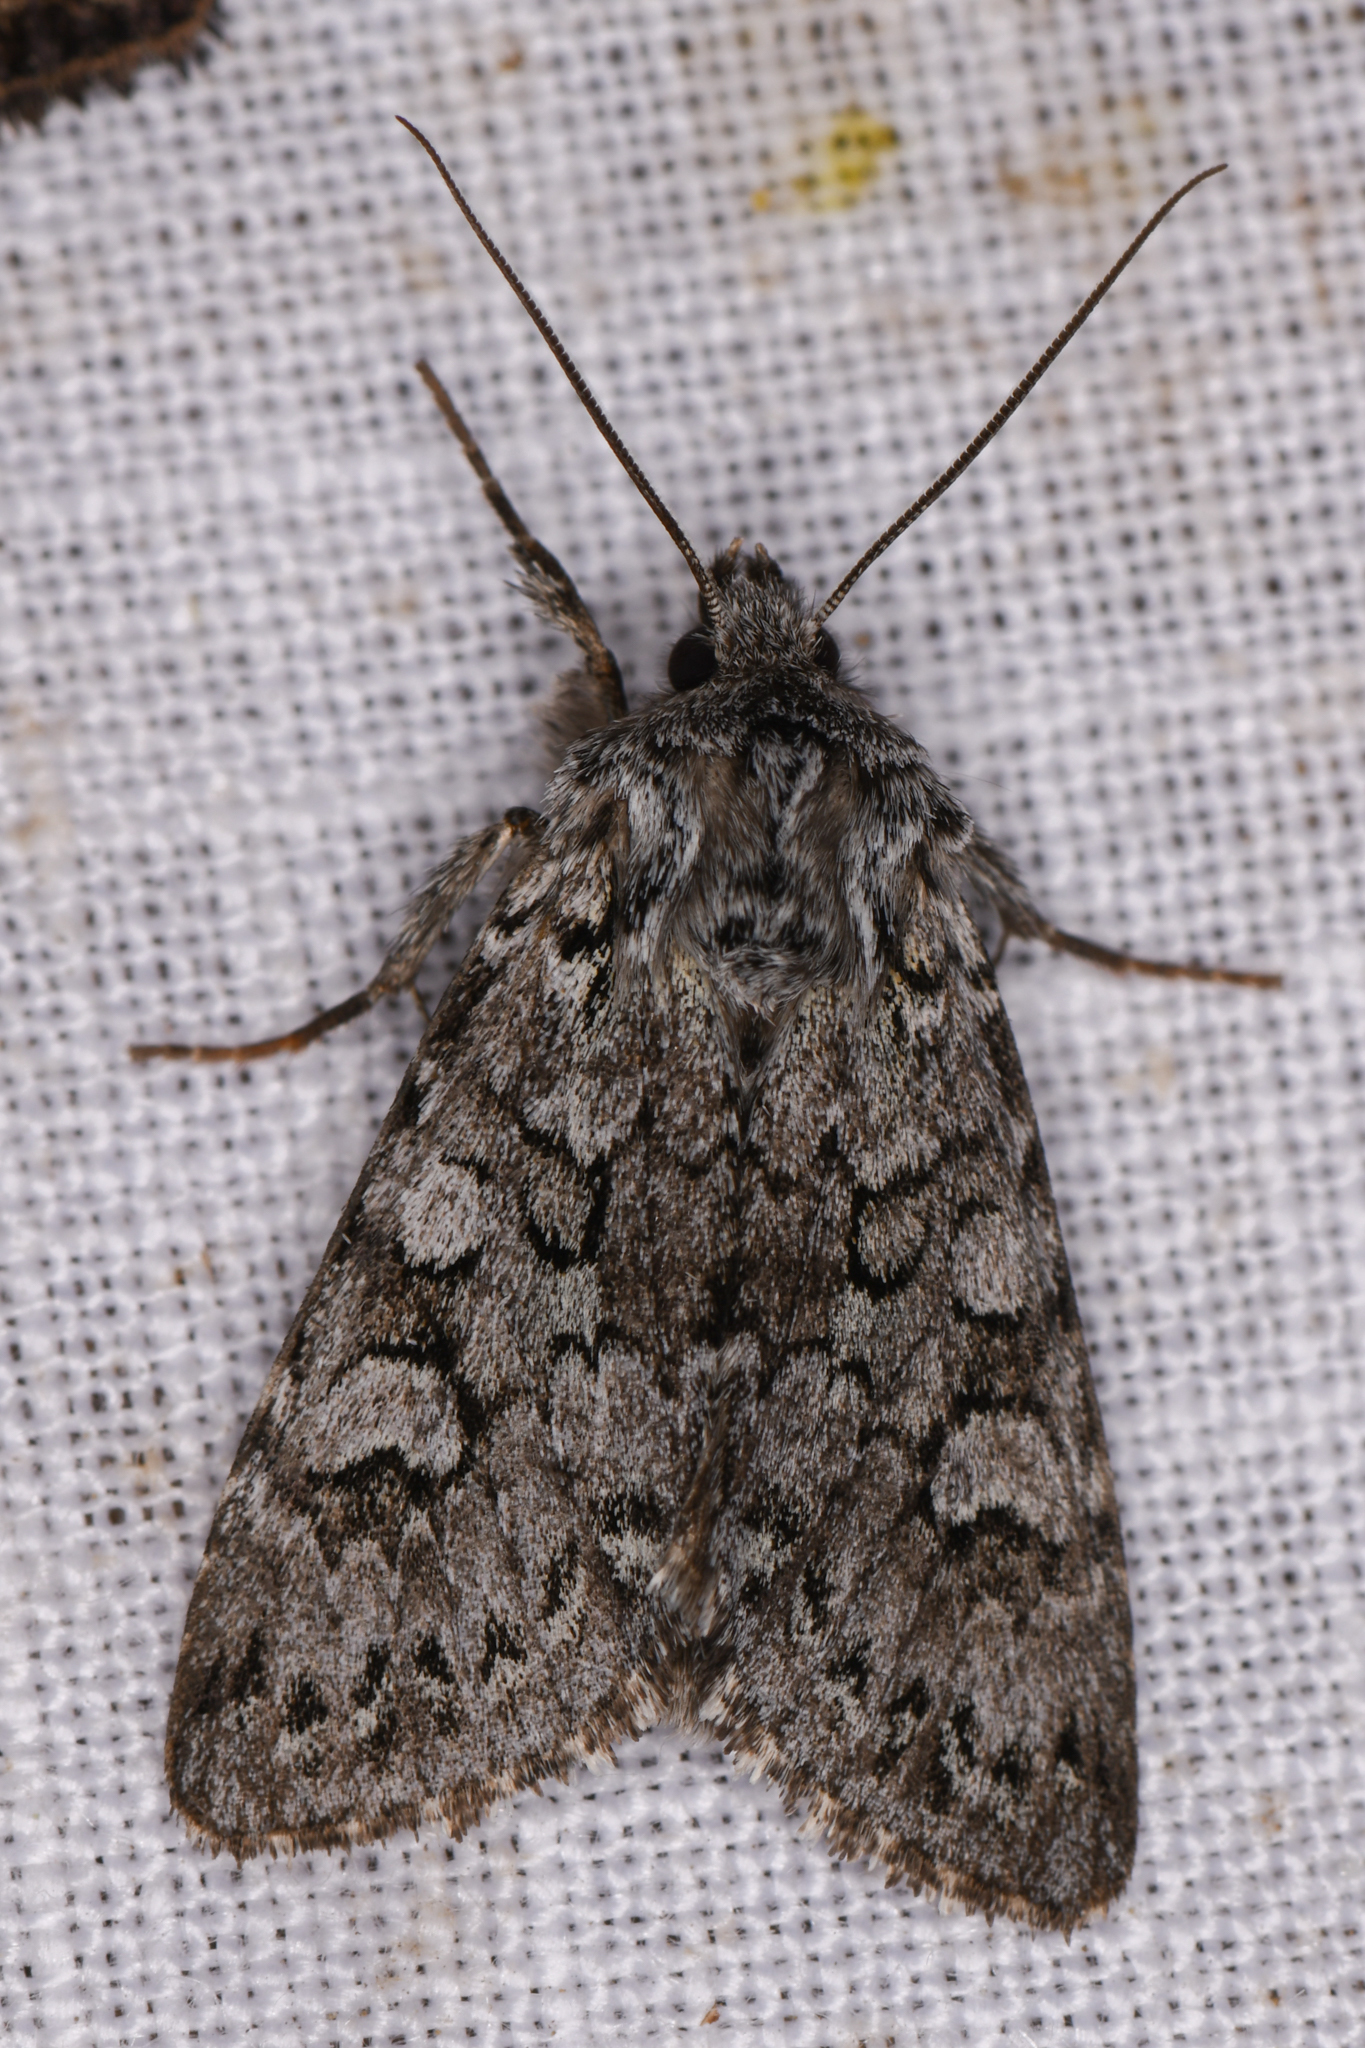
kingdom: Animalia
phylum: Arthropoda
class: Insecta
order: Lepidoptera
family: Noctuidae
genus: Lasionycta
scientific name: Lasionycta mutilata
